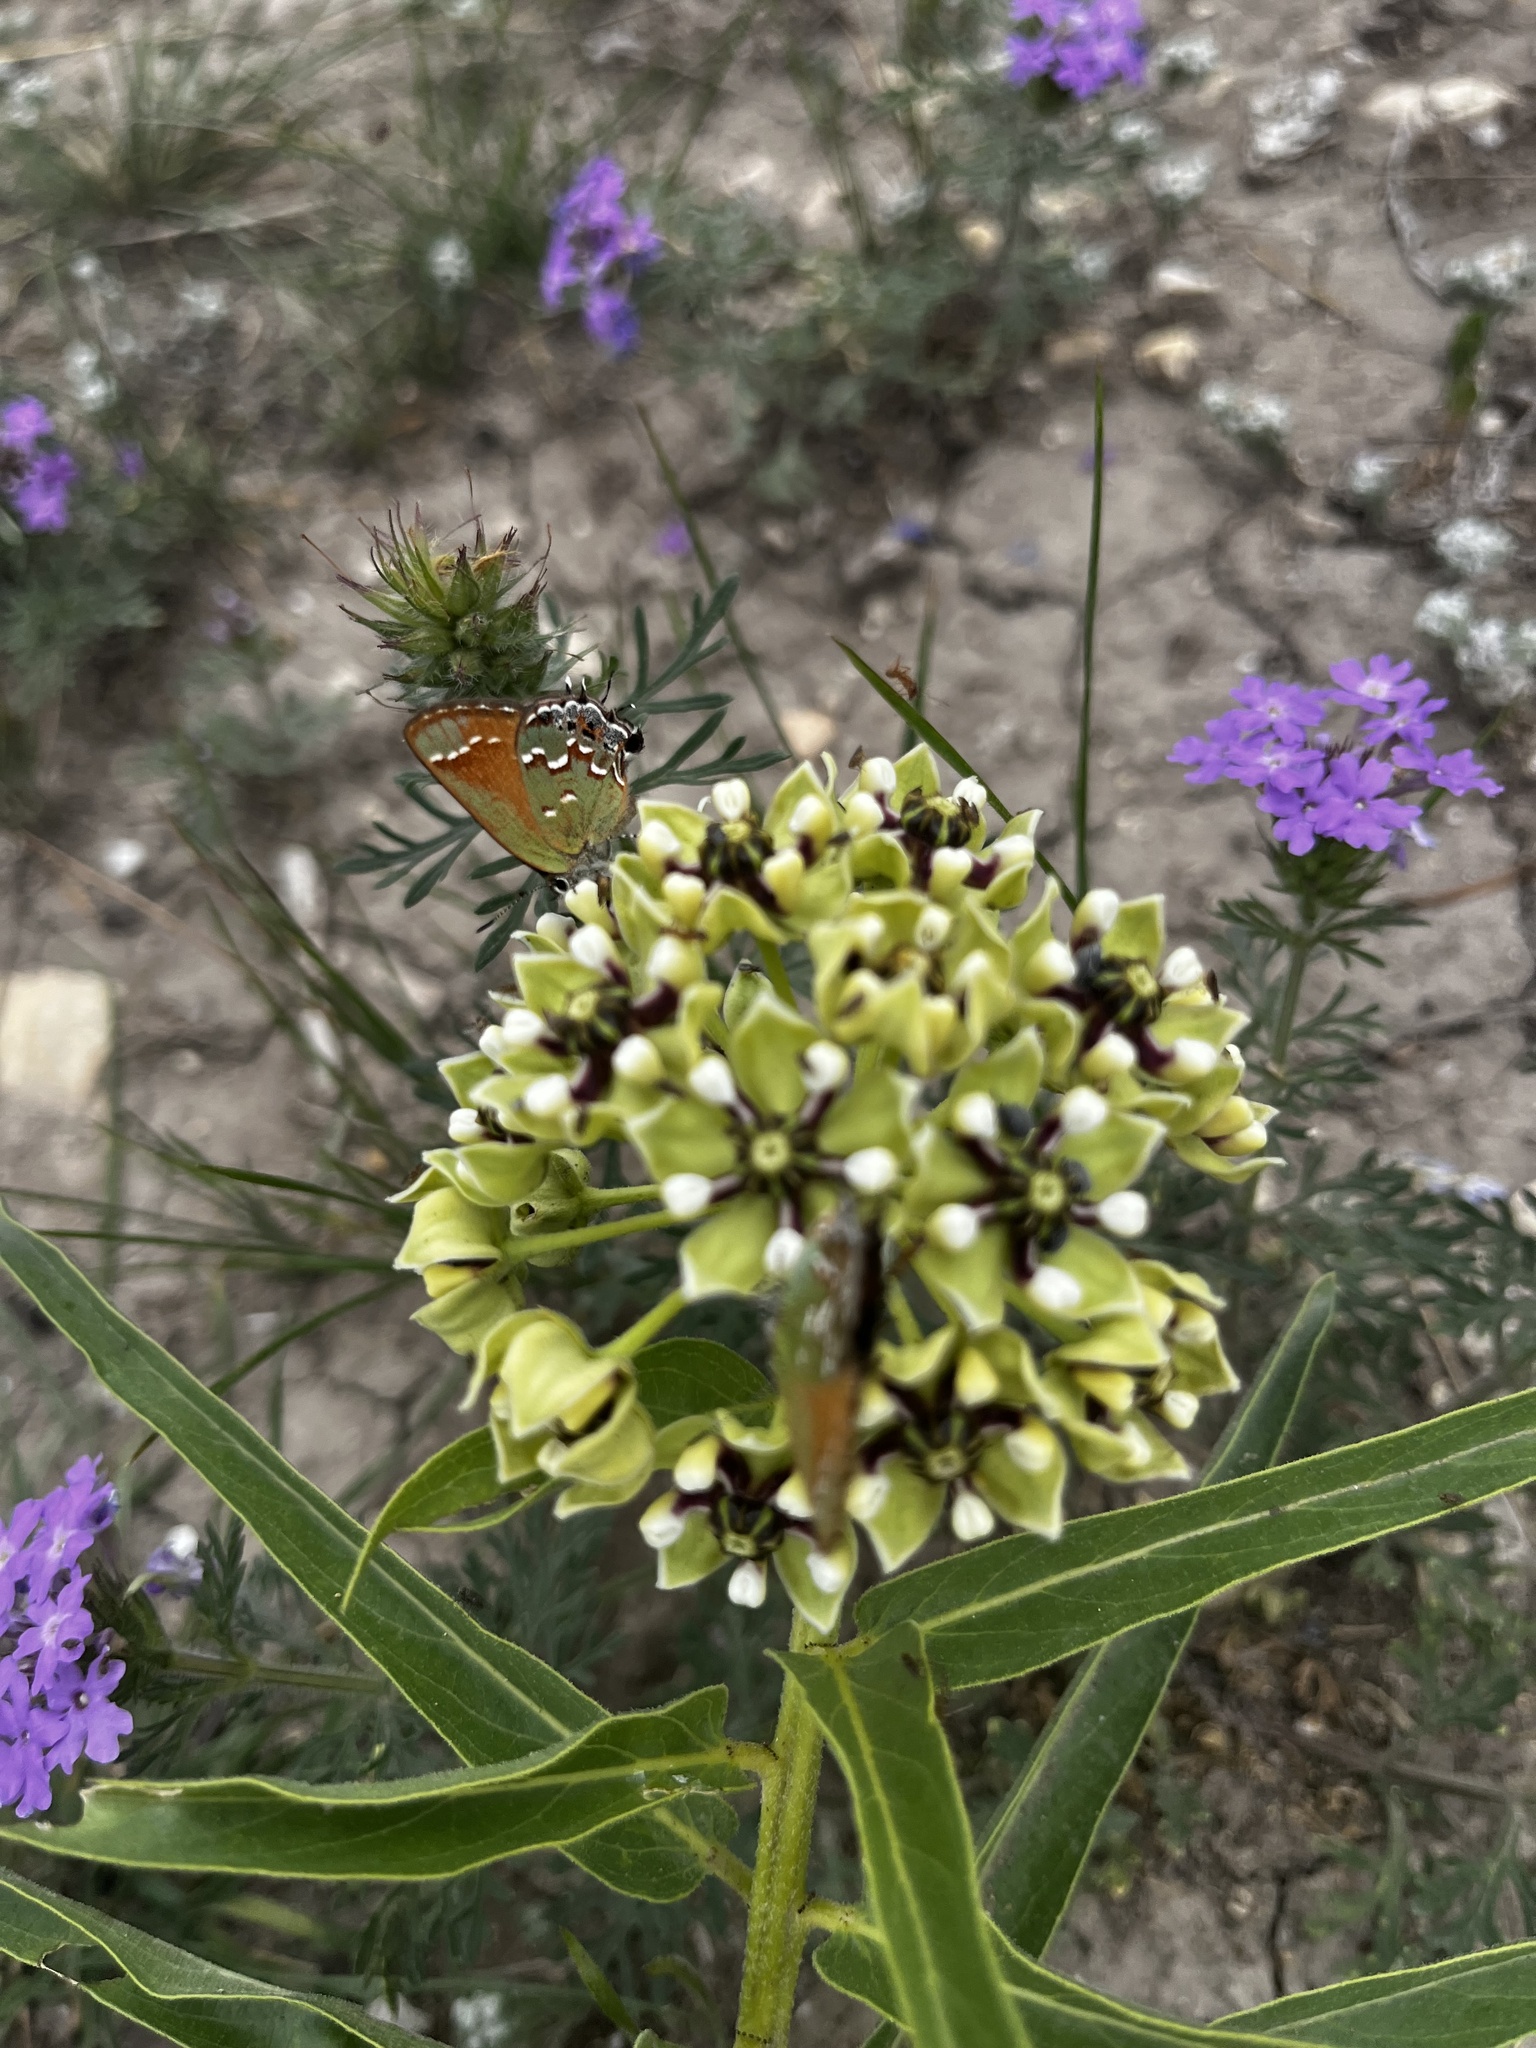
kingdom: Animalia
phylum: Arthropoda
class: Insecta
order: Lepidoptera
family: Lycaenidae
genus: Mitoura
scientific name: Mitoura gryneus
